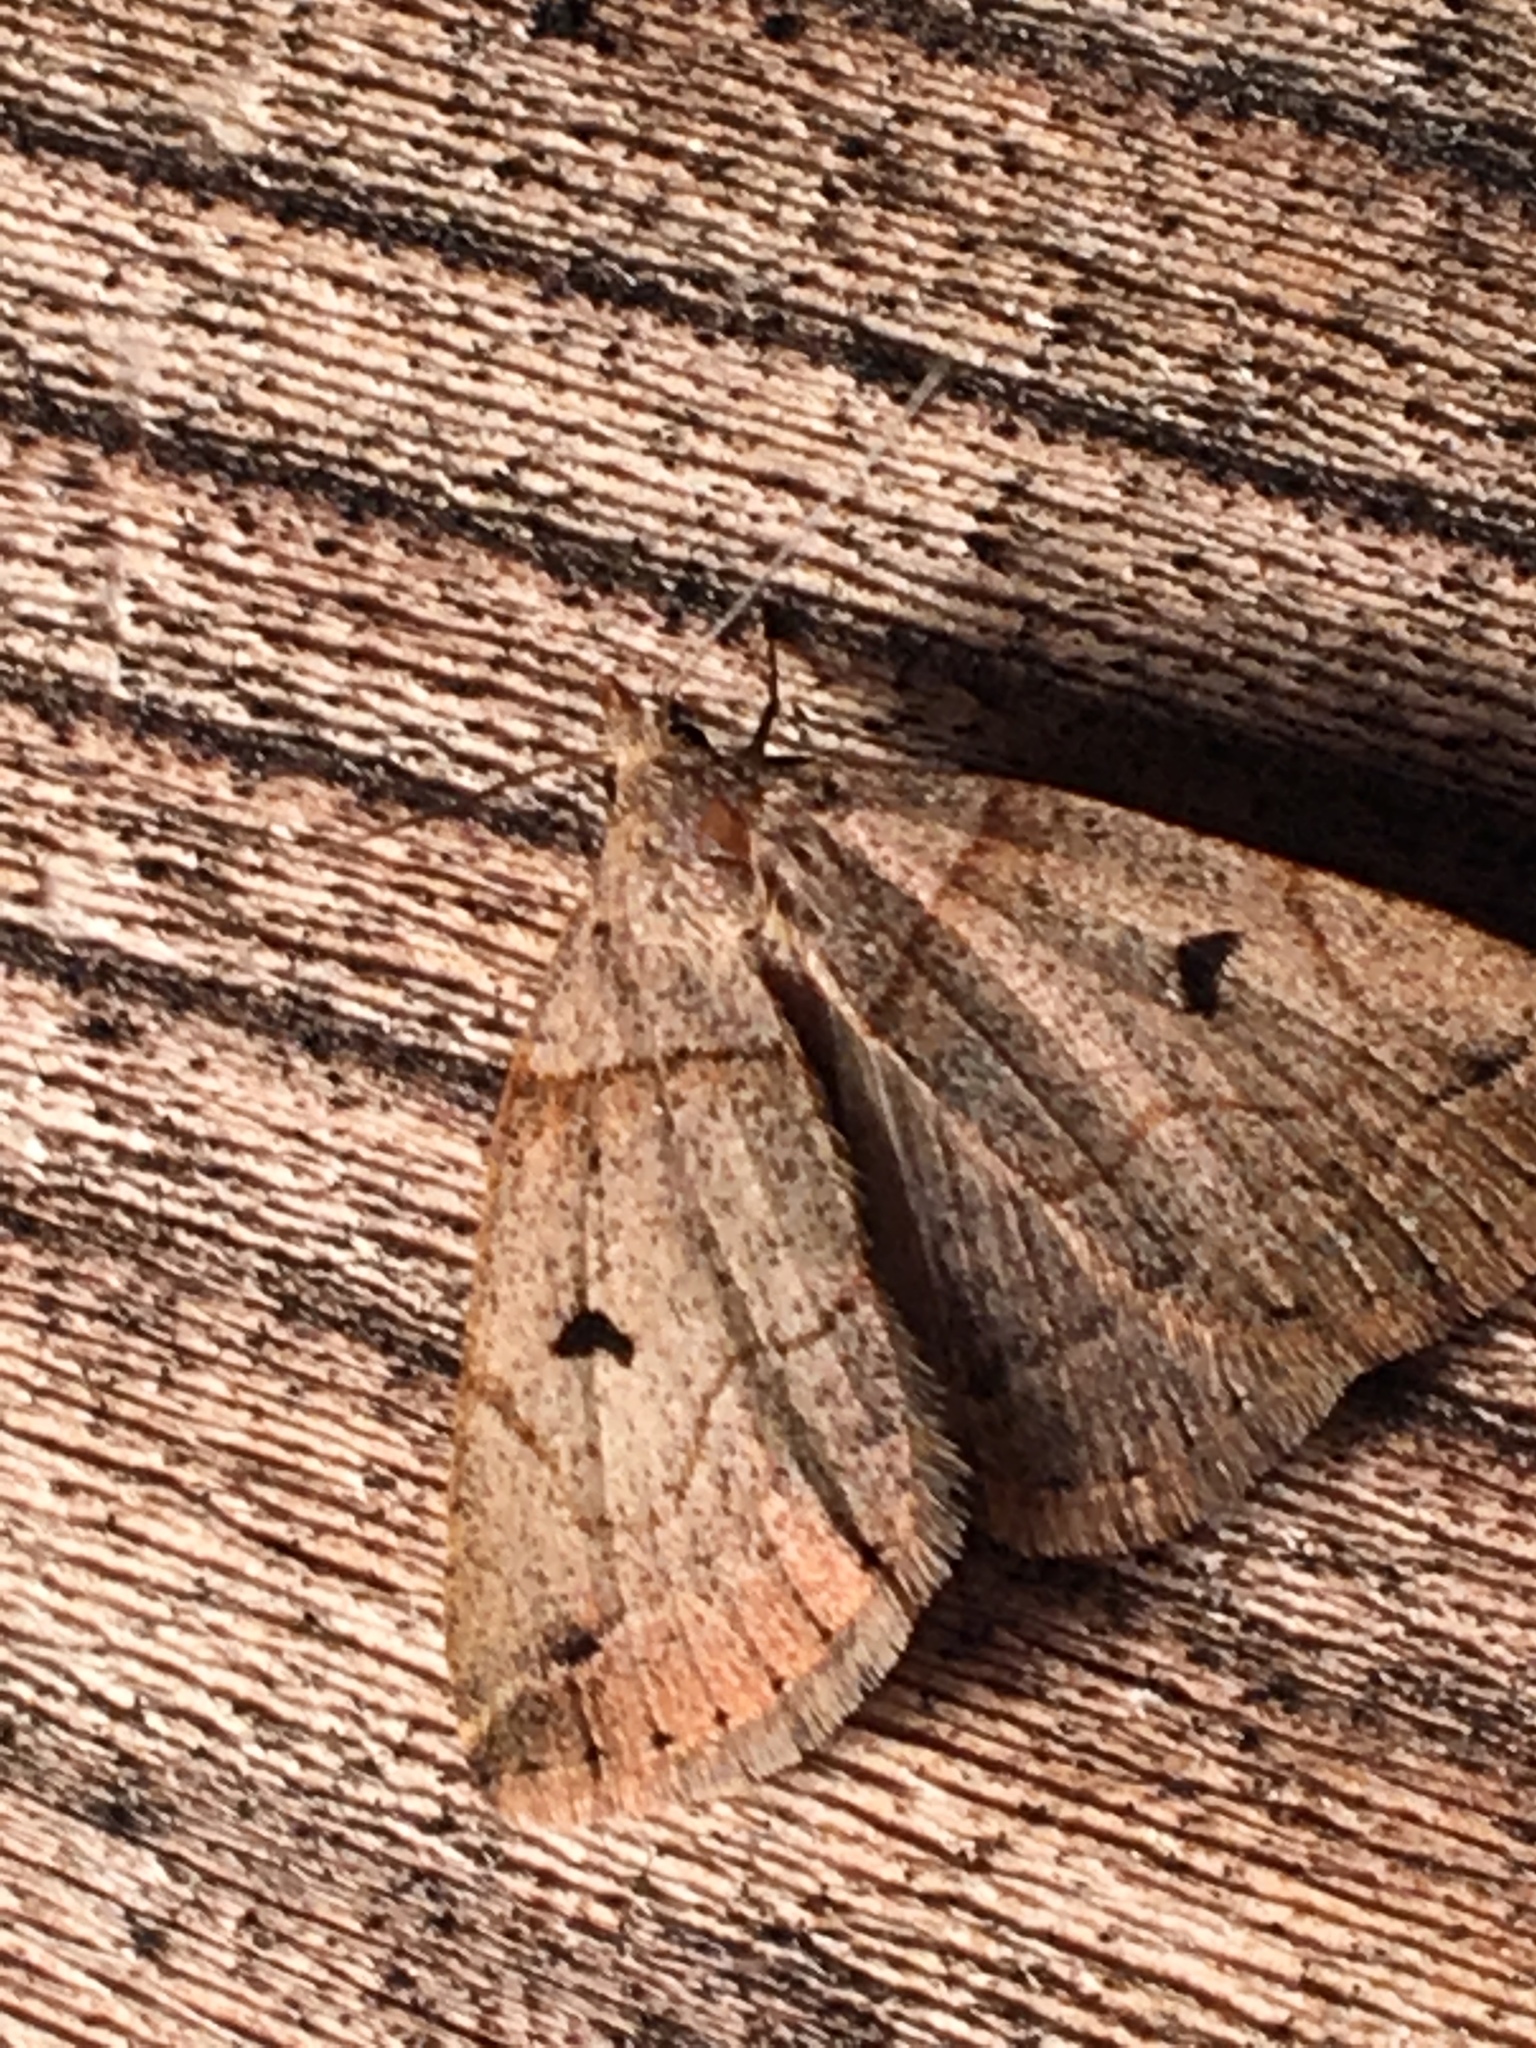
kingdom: Animalia
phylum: Arthropoda
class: Insecta
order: Lepidoptera
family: Erebidae
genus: Zanclognatha
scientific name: Zanclognatha laevigata
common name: Variable fan-foot
